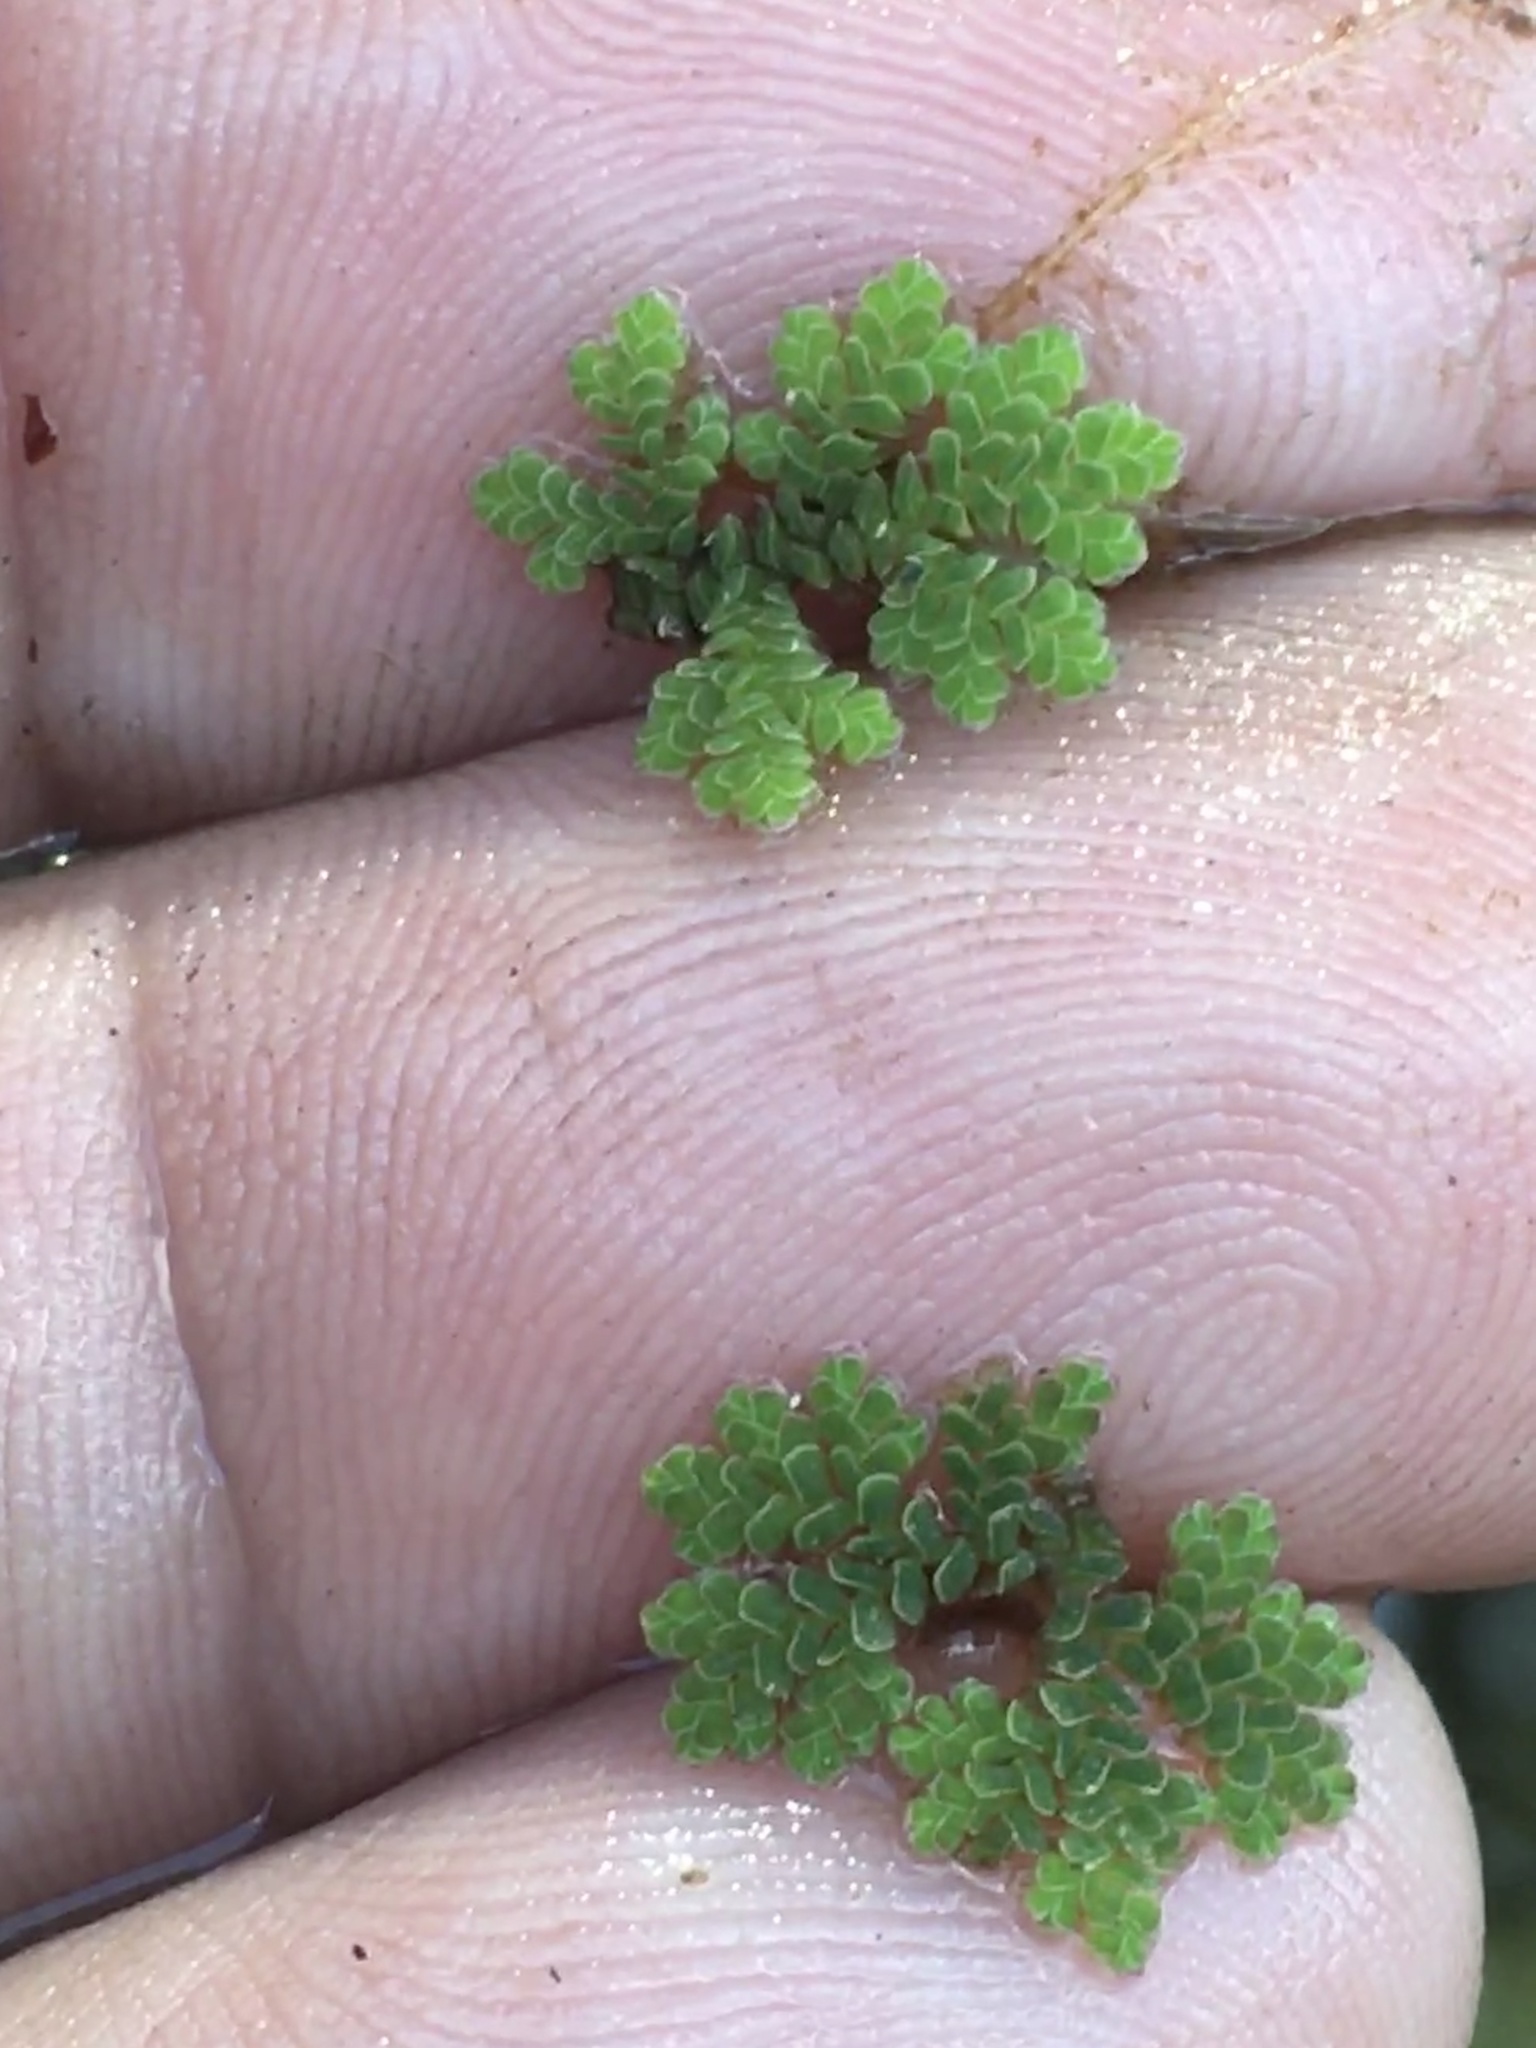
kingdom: Plantae
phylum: Tracheophyta
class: Polypodiopsida
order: Salviniales
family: Salviniaceae
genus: Azolla
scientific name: Azolla caroliniana
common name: Carolina mosquitofern
